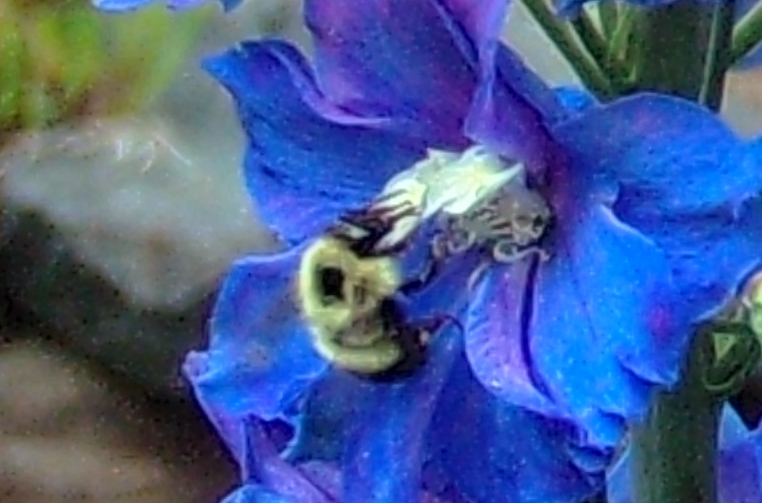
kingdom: Animalia
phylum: Arthropoda
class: Insecta
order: Hymenoptera
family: Apidae
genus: Pyrobombus
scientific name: Pyrobombus
